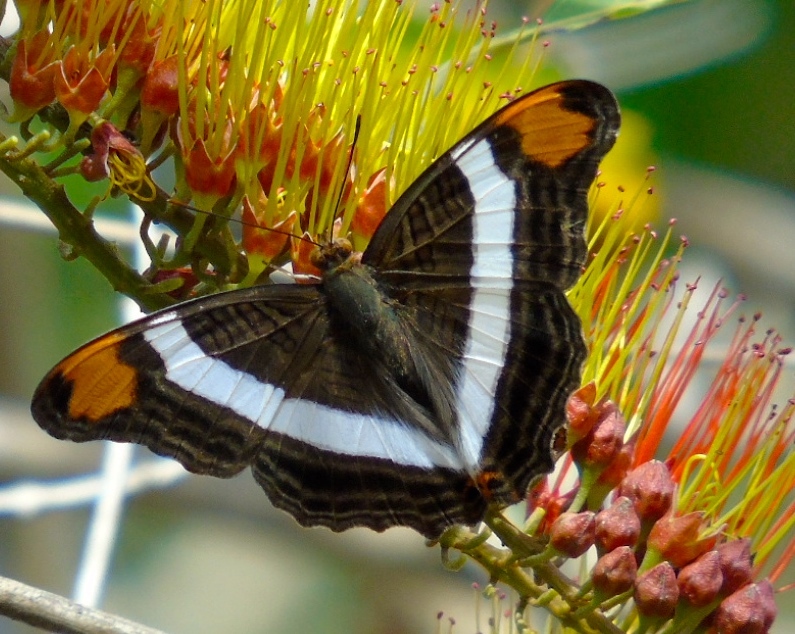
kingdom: Animalia
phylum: Arthropoda
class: Insecta
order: Lepidoptera
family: Nymphalidae
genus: Limenitis
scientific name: Limenitis fessonia
